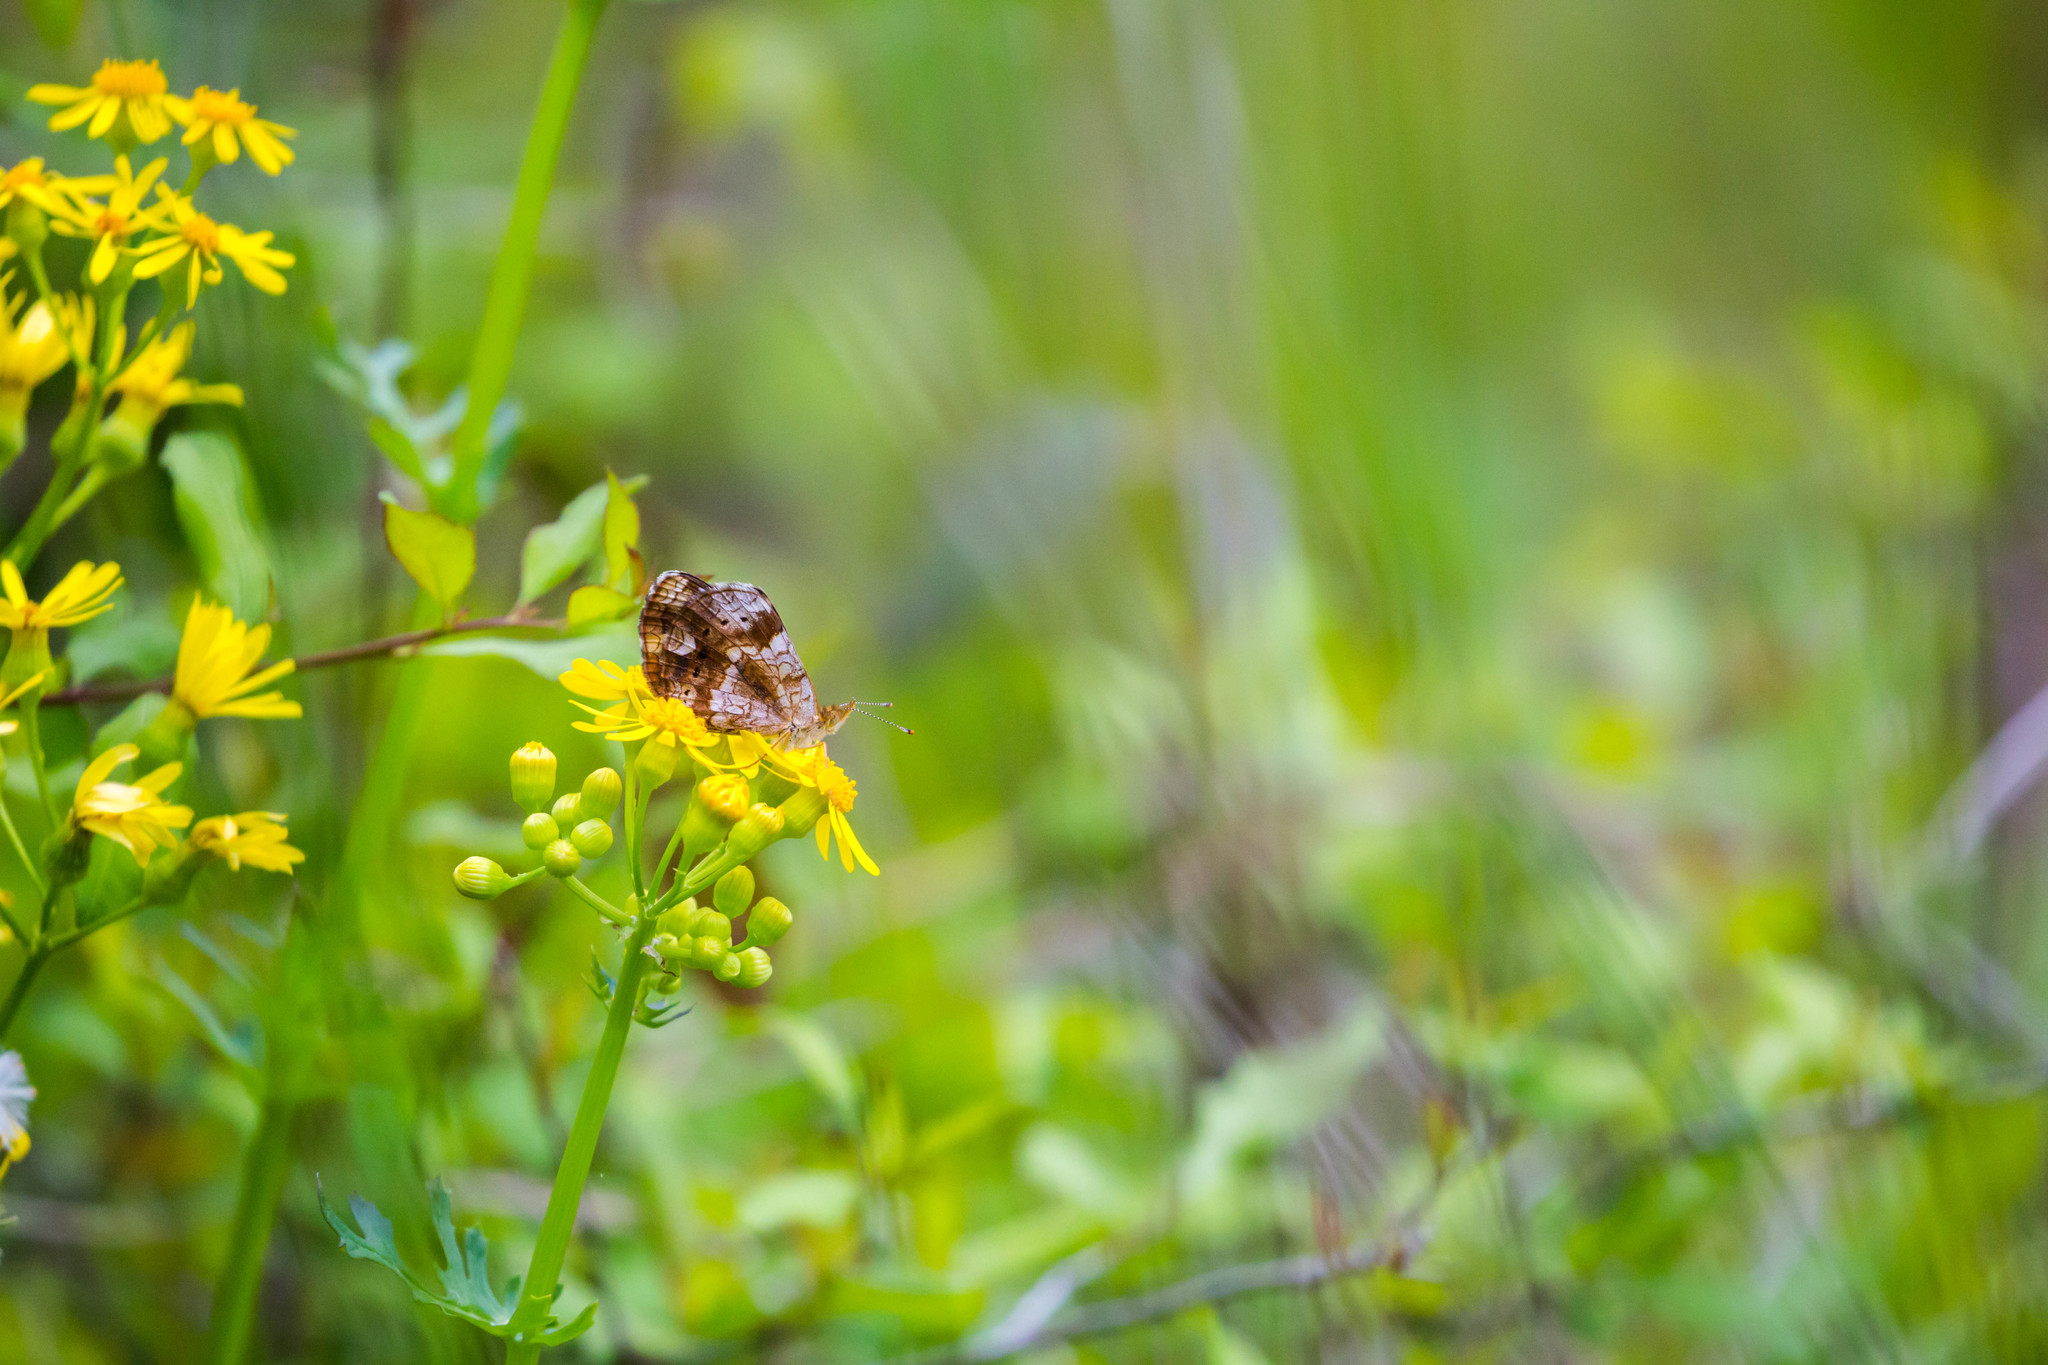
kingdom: Animalia
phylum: Arthropoda
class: Insecta
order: Lepidoptera
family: Nymphalidae
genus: Phyciodes
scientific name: Phyciodes tharos
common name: Pearl crescent
